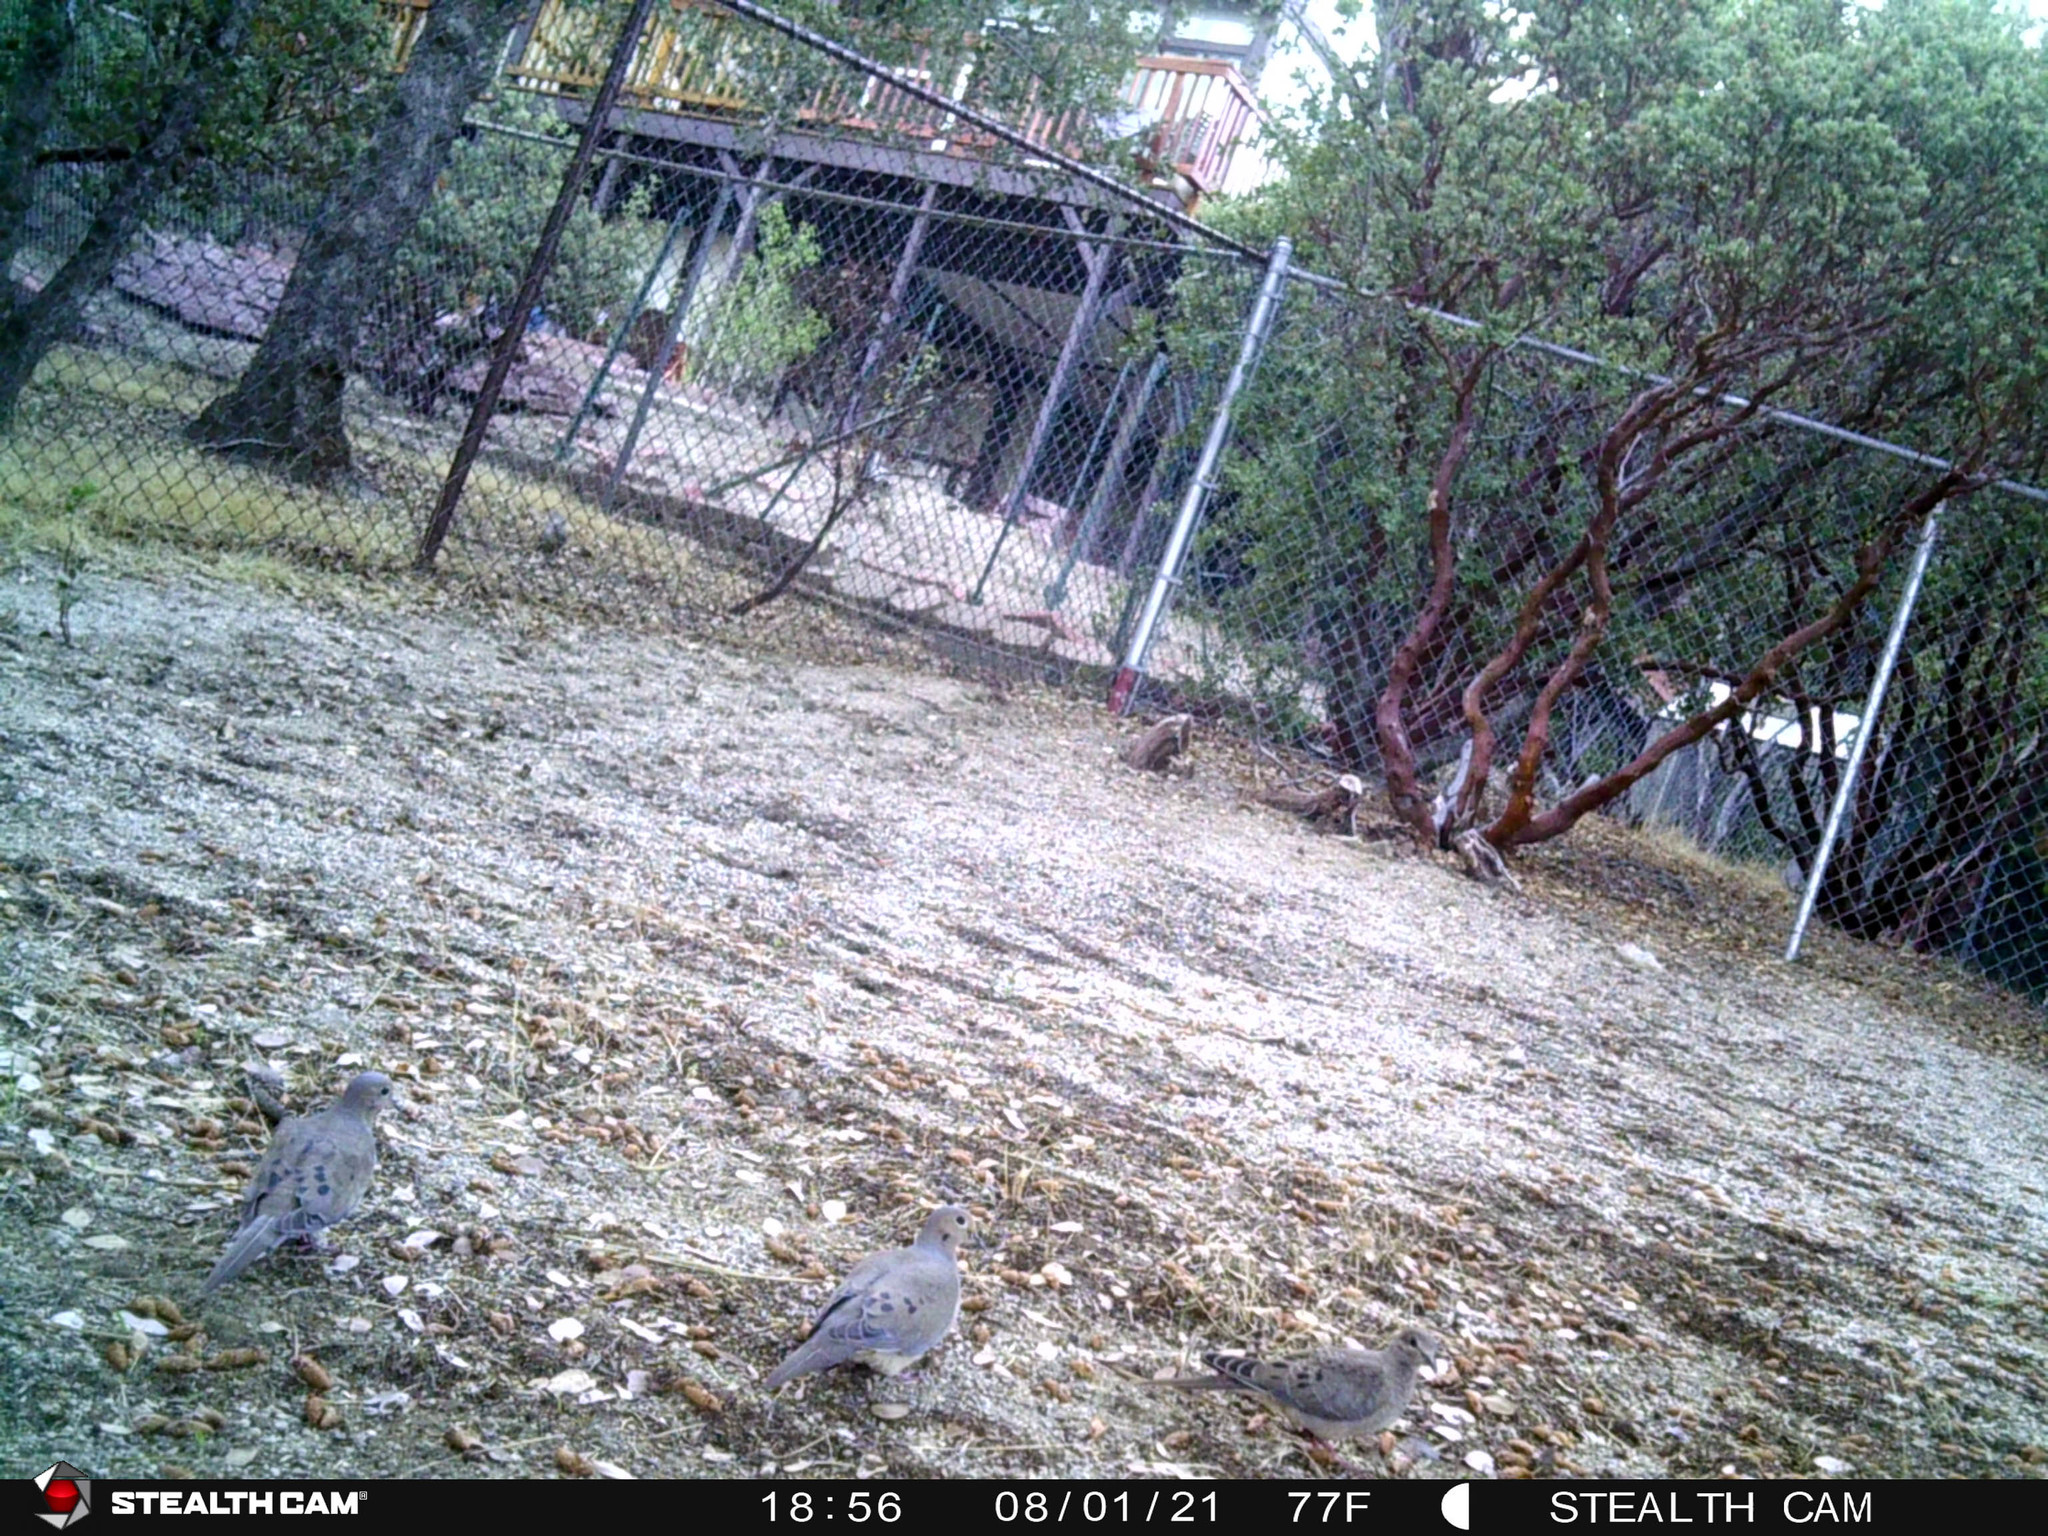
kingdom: Animalia
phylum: Chordata
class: Aves
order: Columbiformes
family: Columbidae
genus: Zenaida
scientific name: Zenaida macroura
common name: Mourning dove
